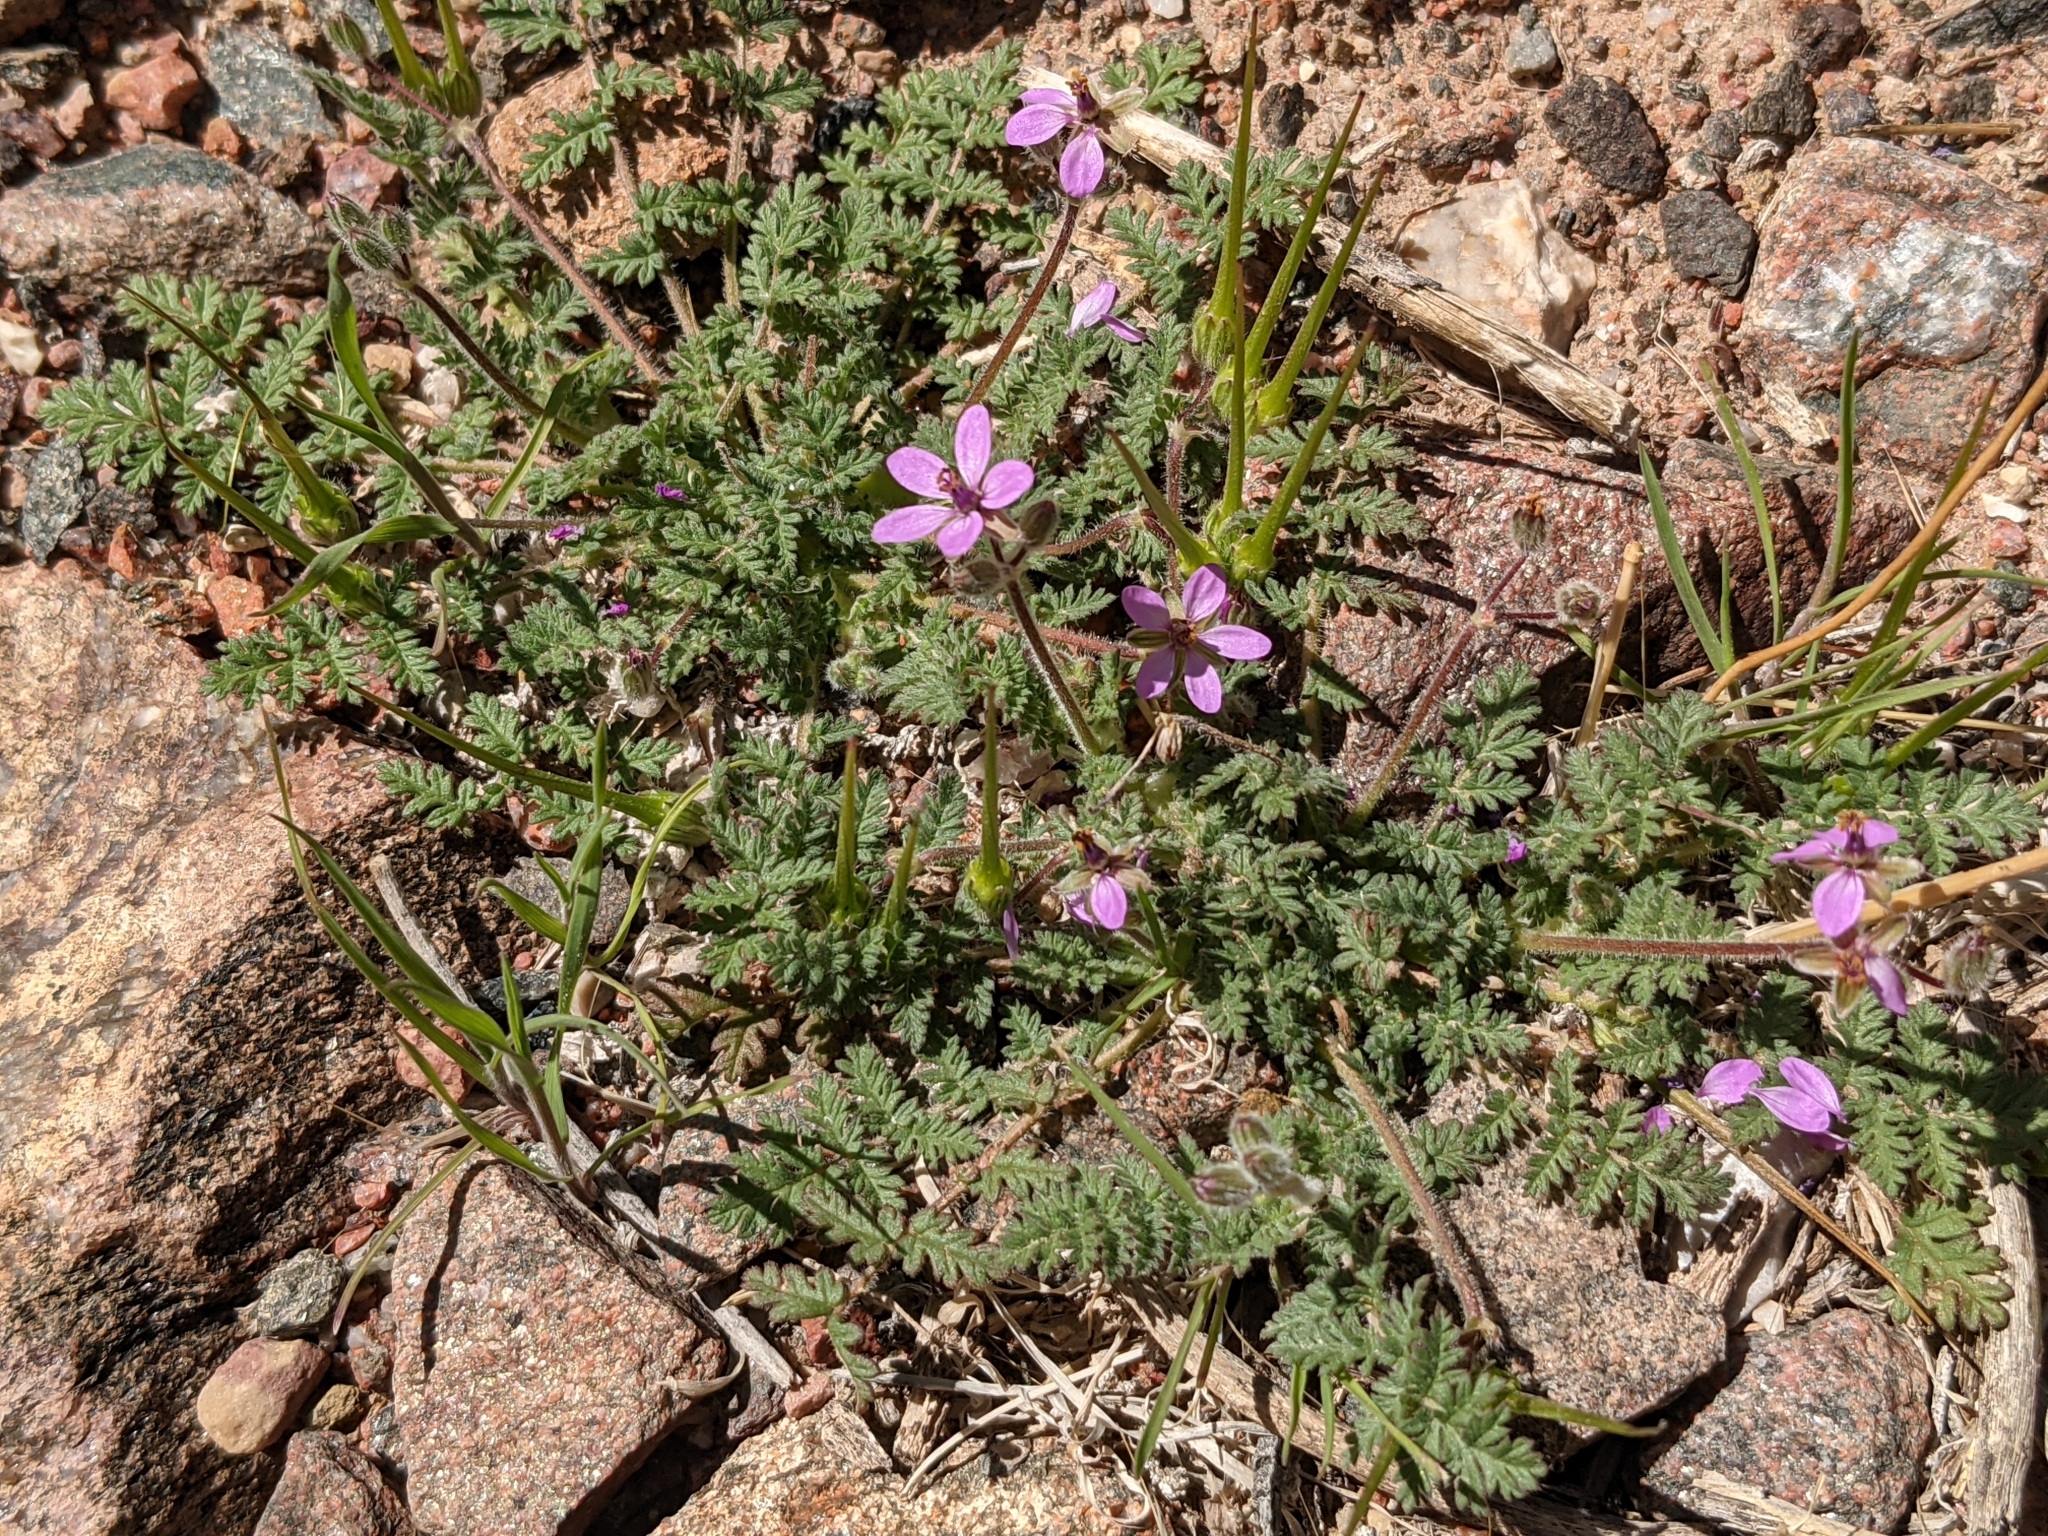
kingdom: Plantae
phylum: Tracheophyta
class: Magnoliopsida
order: Geraniales
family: Geraniaceae
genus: Erodium
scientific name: Erodium cicutarium
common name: Common stork's-bill
